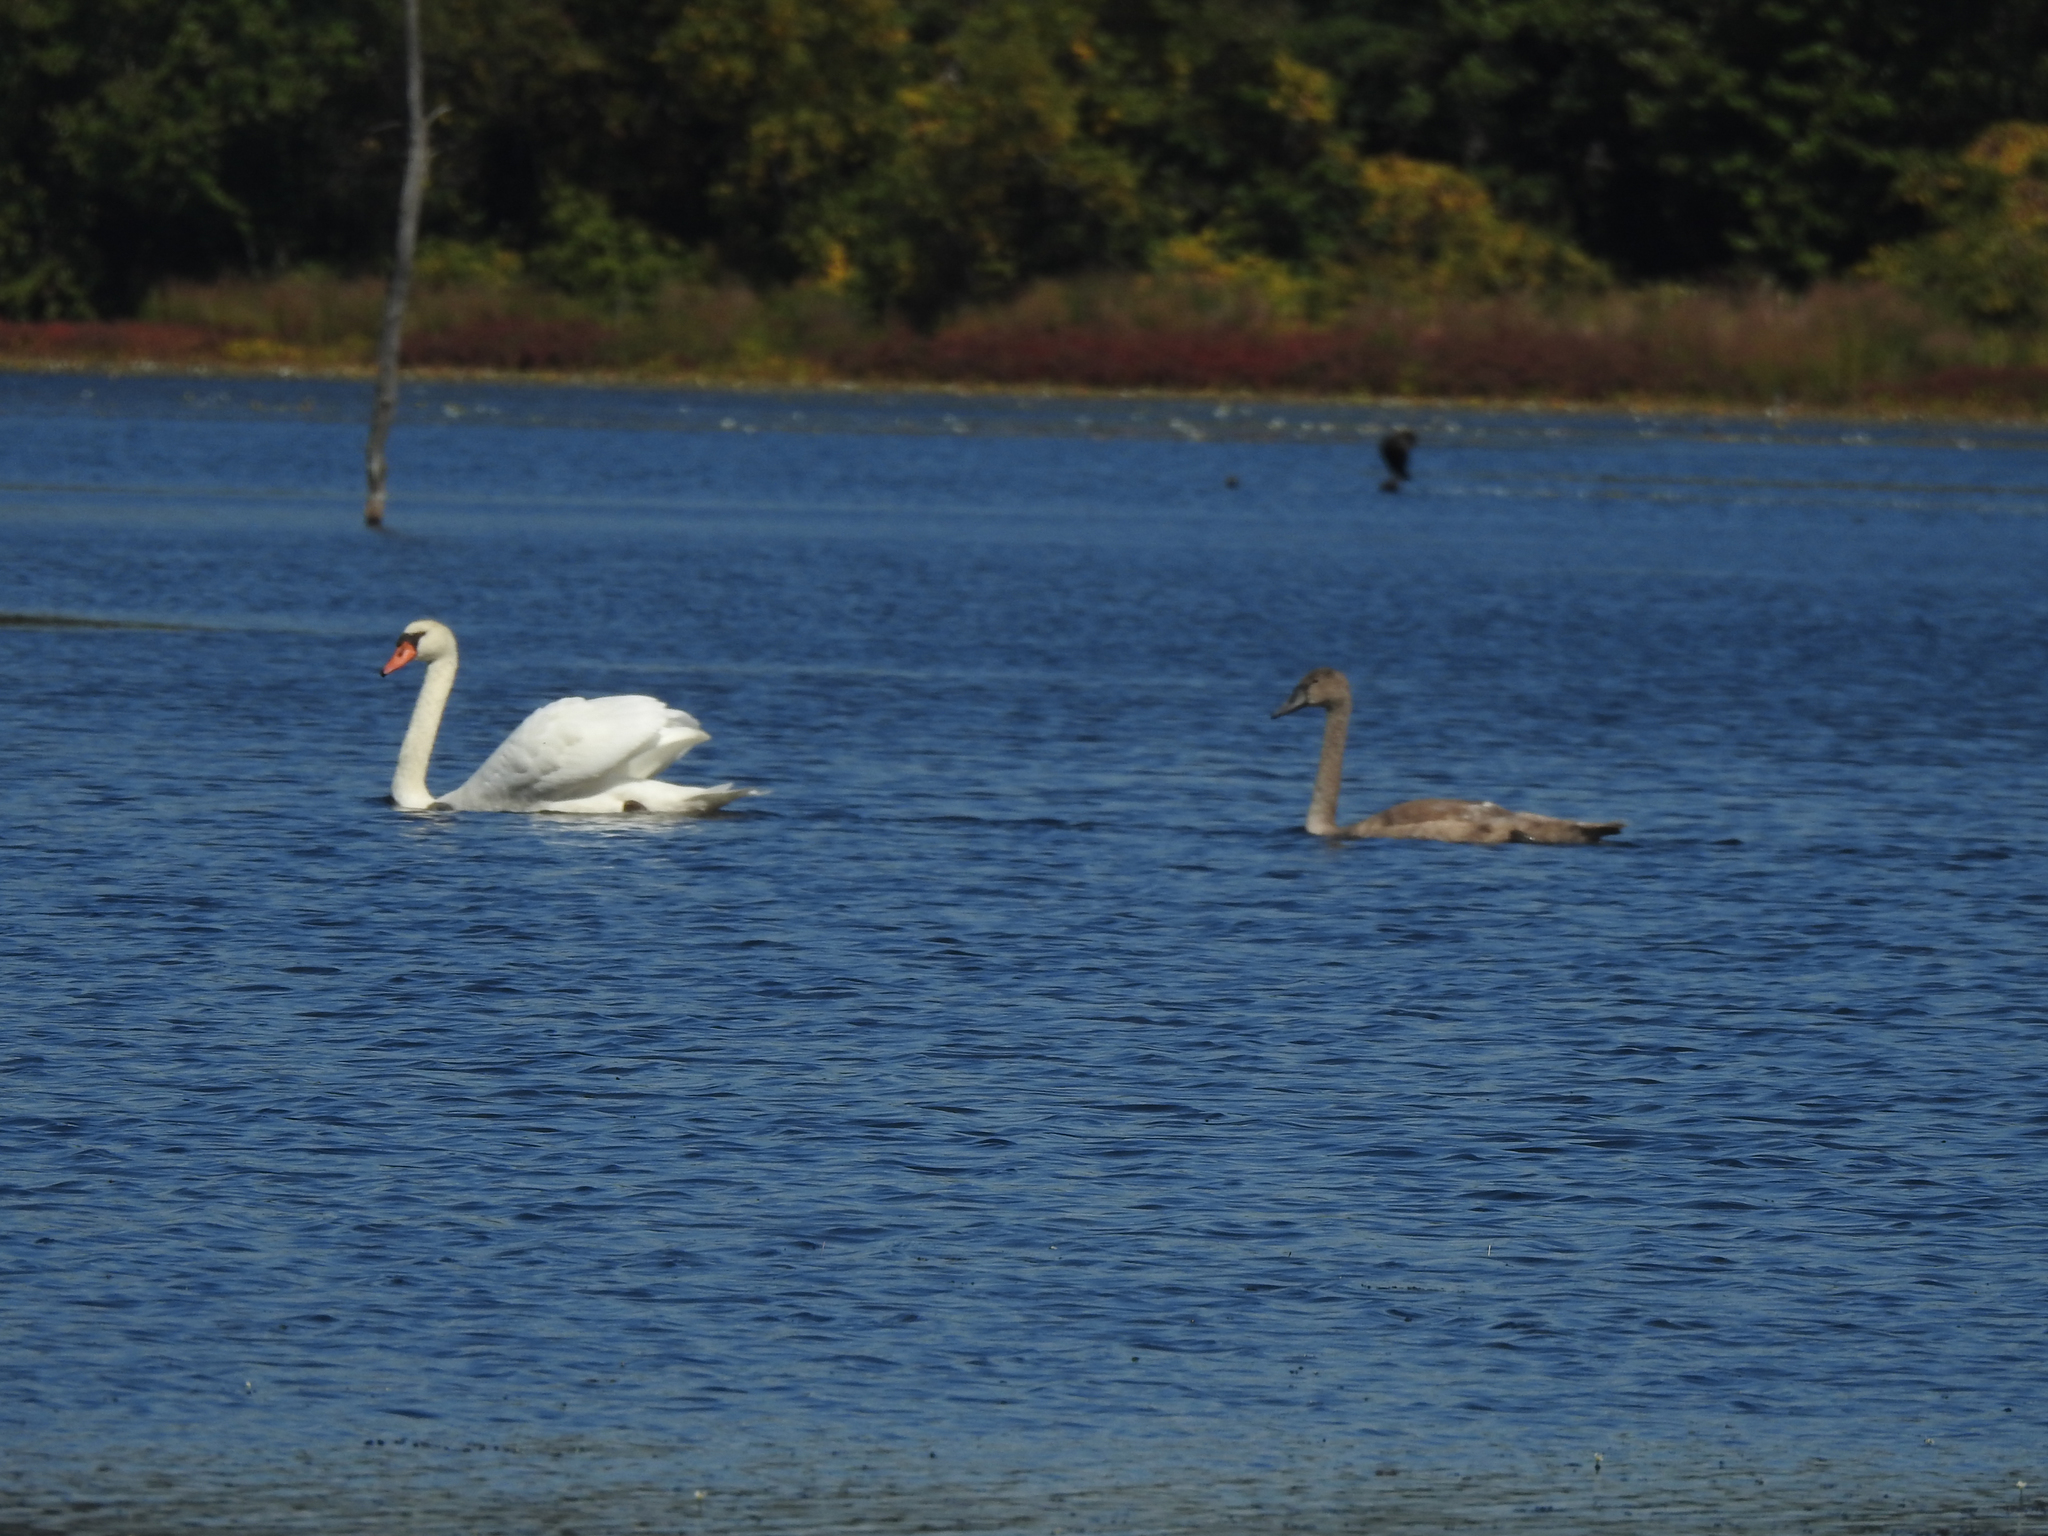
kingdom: Animalia
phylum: Chordata
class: Aves
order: Anseriformes
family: Anatidae
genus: Cygnus
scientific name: Cygnus olor
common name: Mute swan
